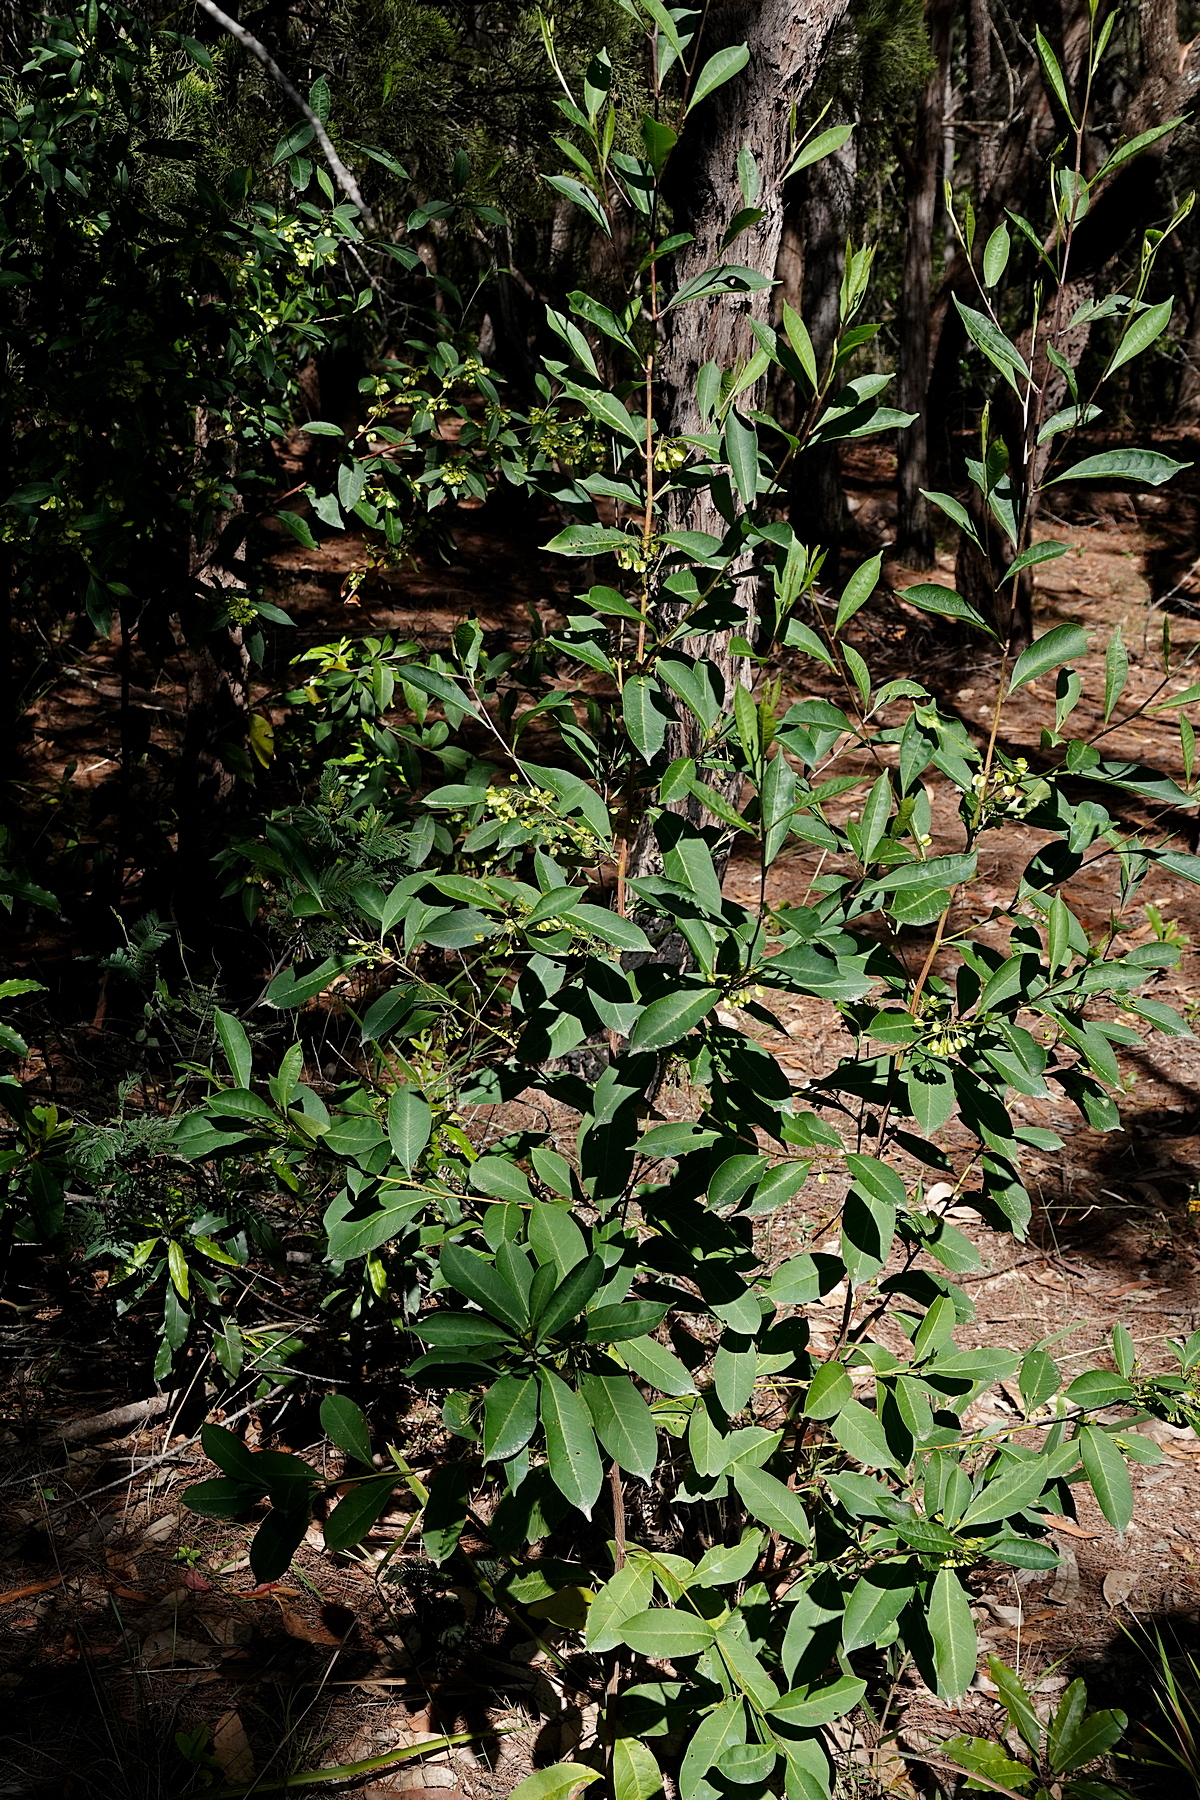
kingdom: Plantae
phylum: Tracheophyta
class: Magnoliopsida
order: Sapindales
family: Sapindaceae
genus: Dodonaea
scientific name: Dodonaea triquetra
